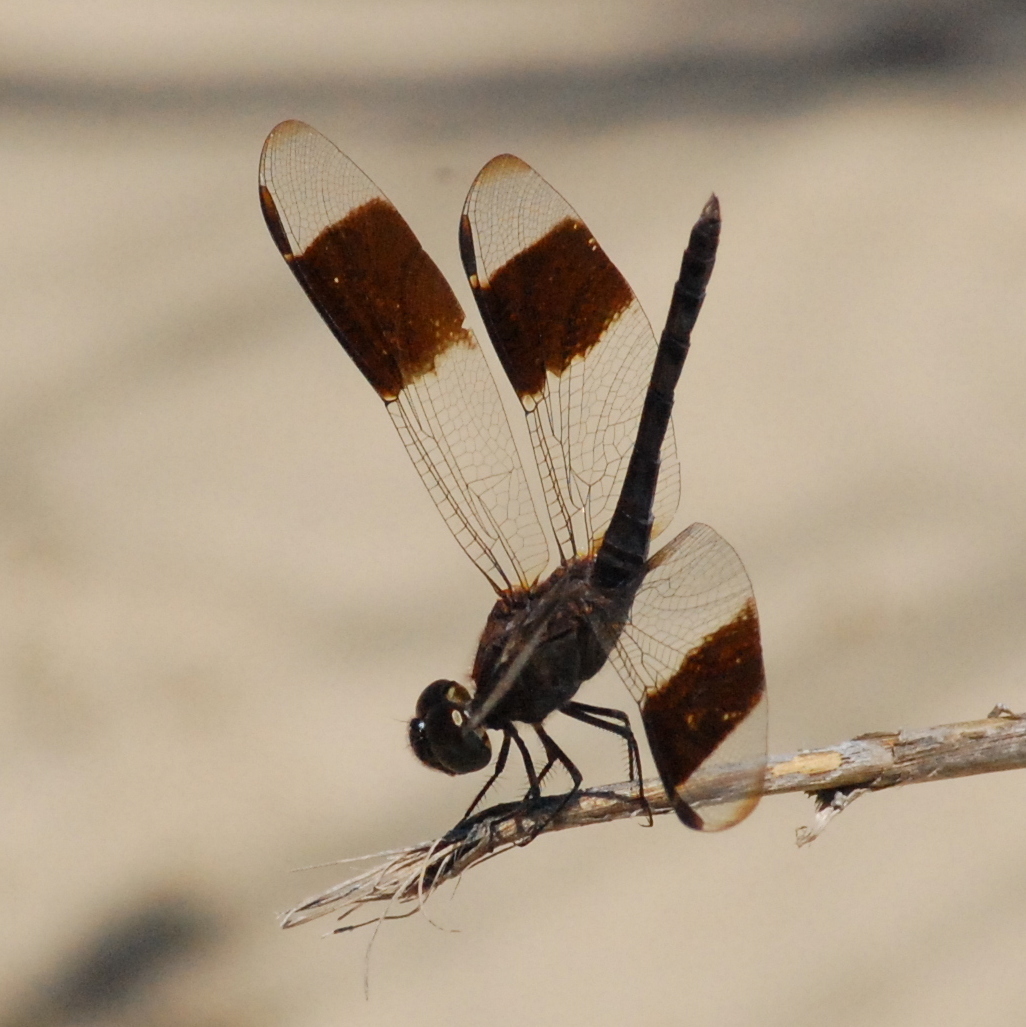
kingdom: Animalia
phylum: Arthropoda
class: Insecta
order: Odonata
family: Libellulidae
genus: Erythrodiplax
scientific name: Erythrodiplax umbrata
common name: Band-winged dragonlet
